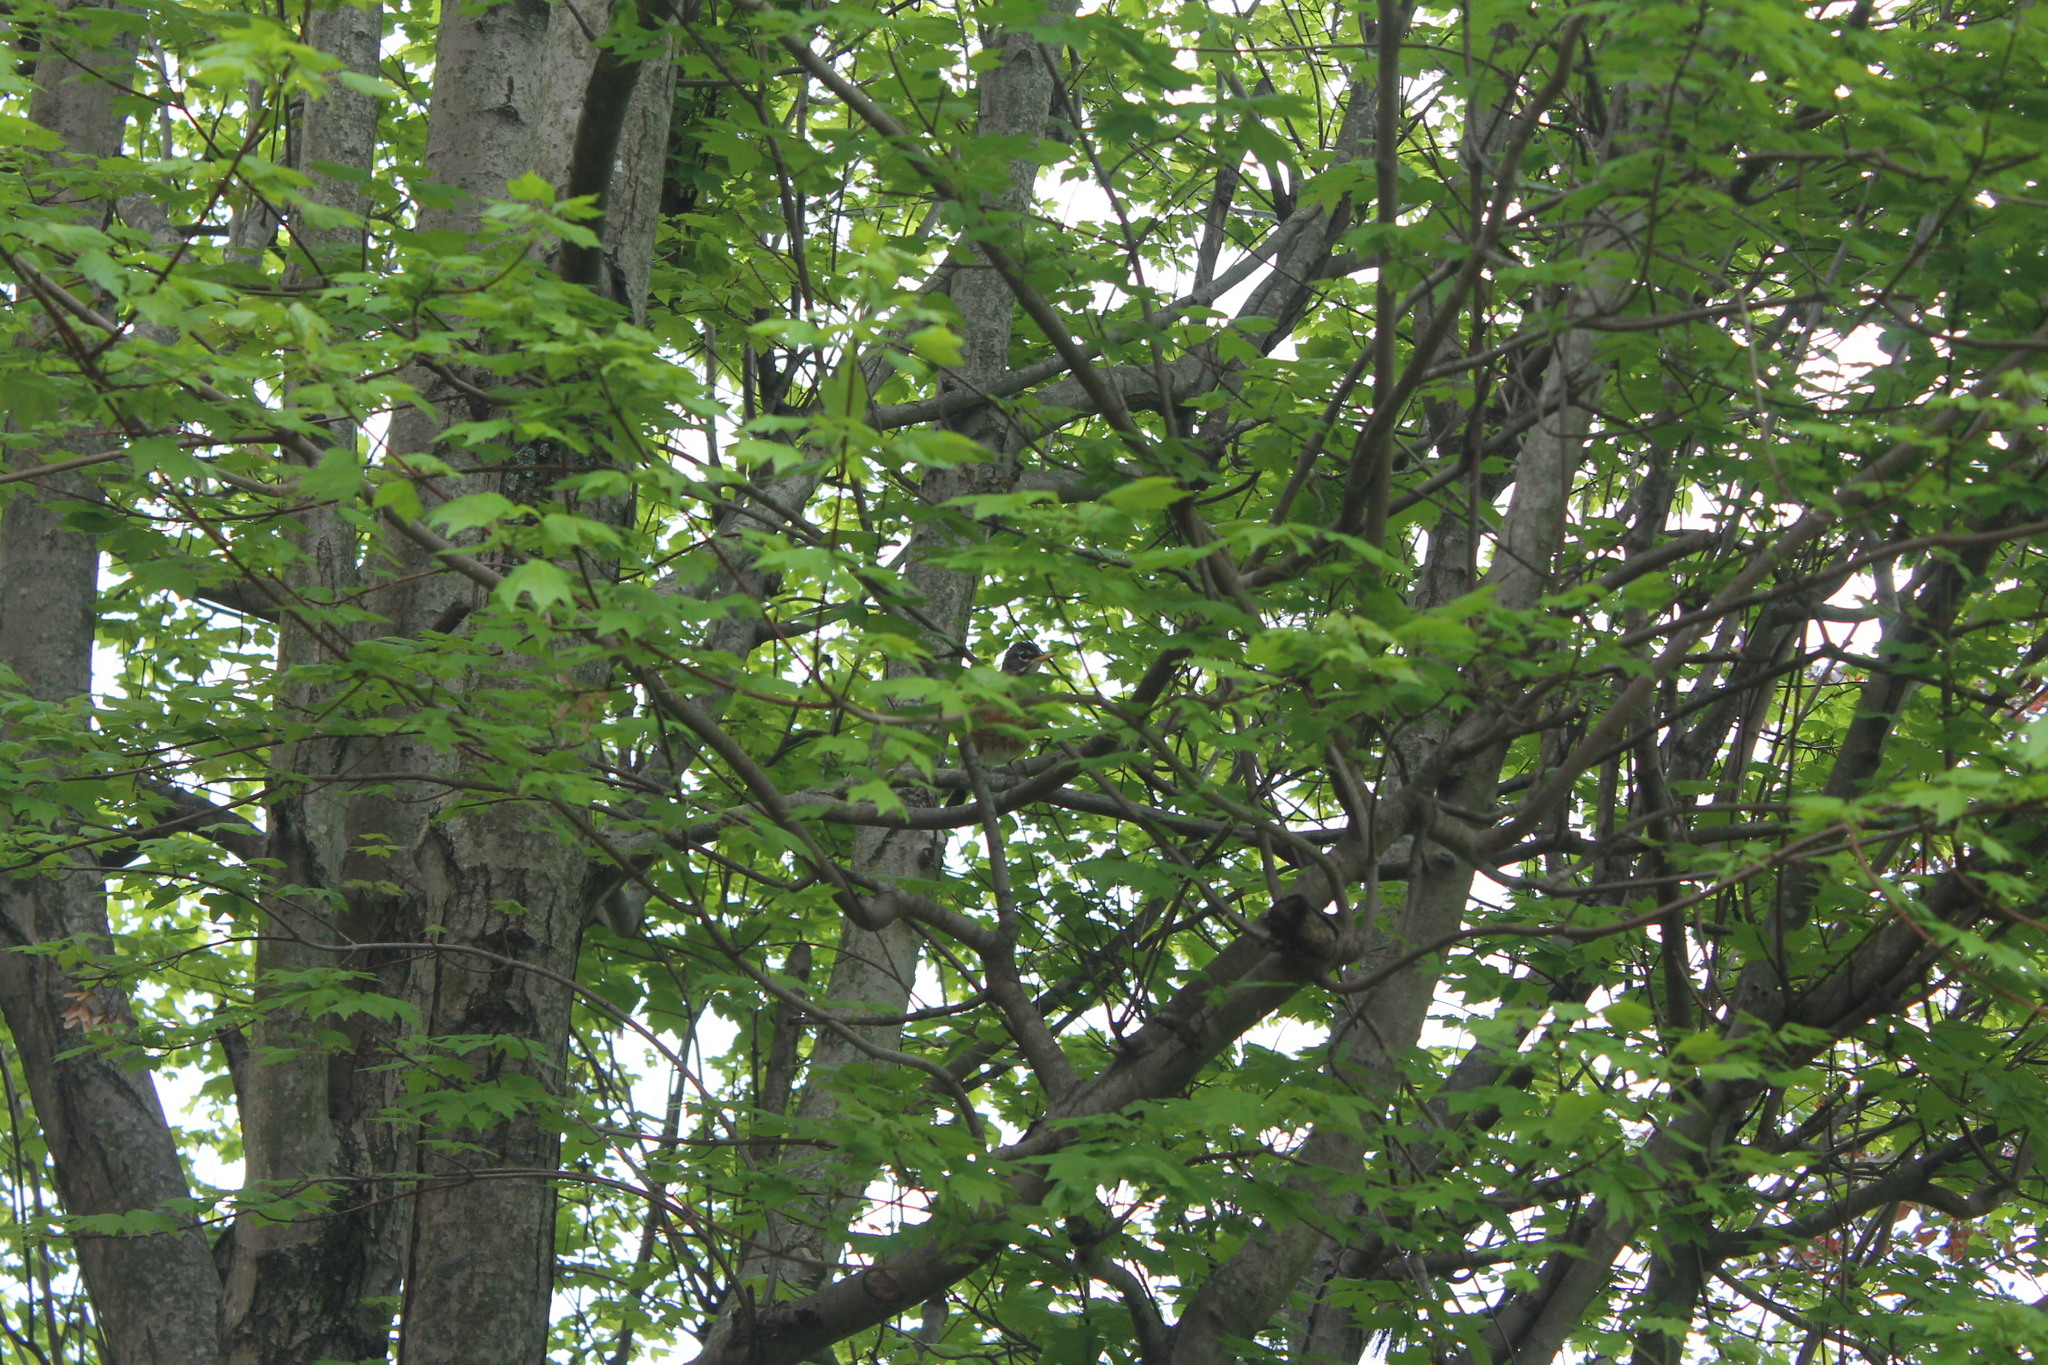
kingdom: Animalia
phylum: Chordata
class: Aves
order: Passeriformes
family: Turdidae
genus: Turdus
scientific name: Turdus migratorius
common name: American robin
